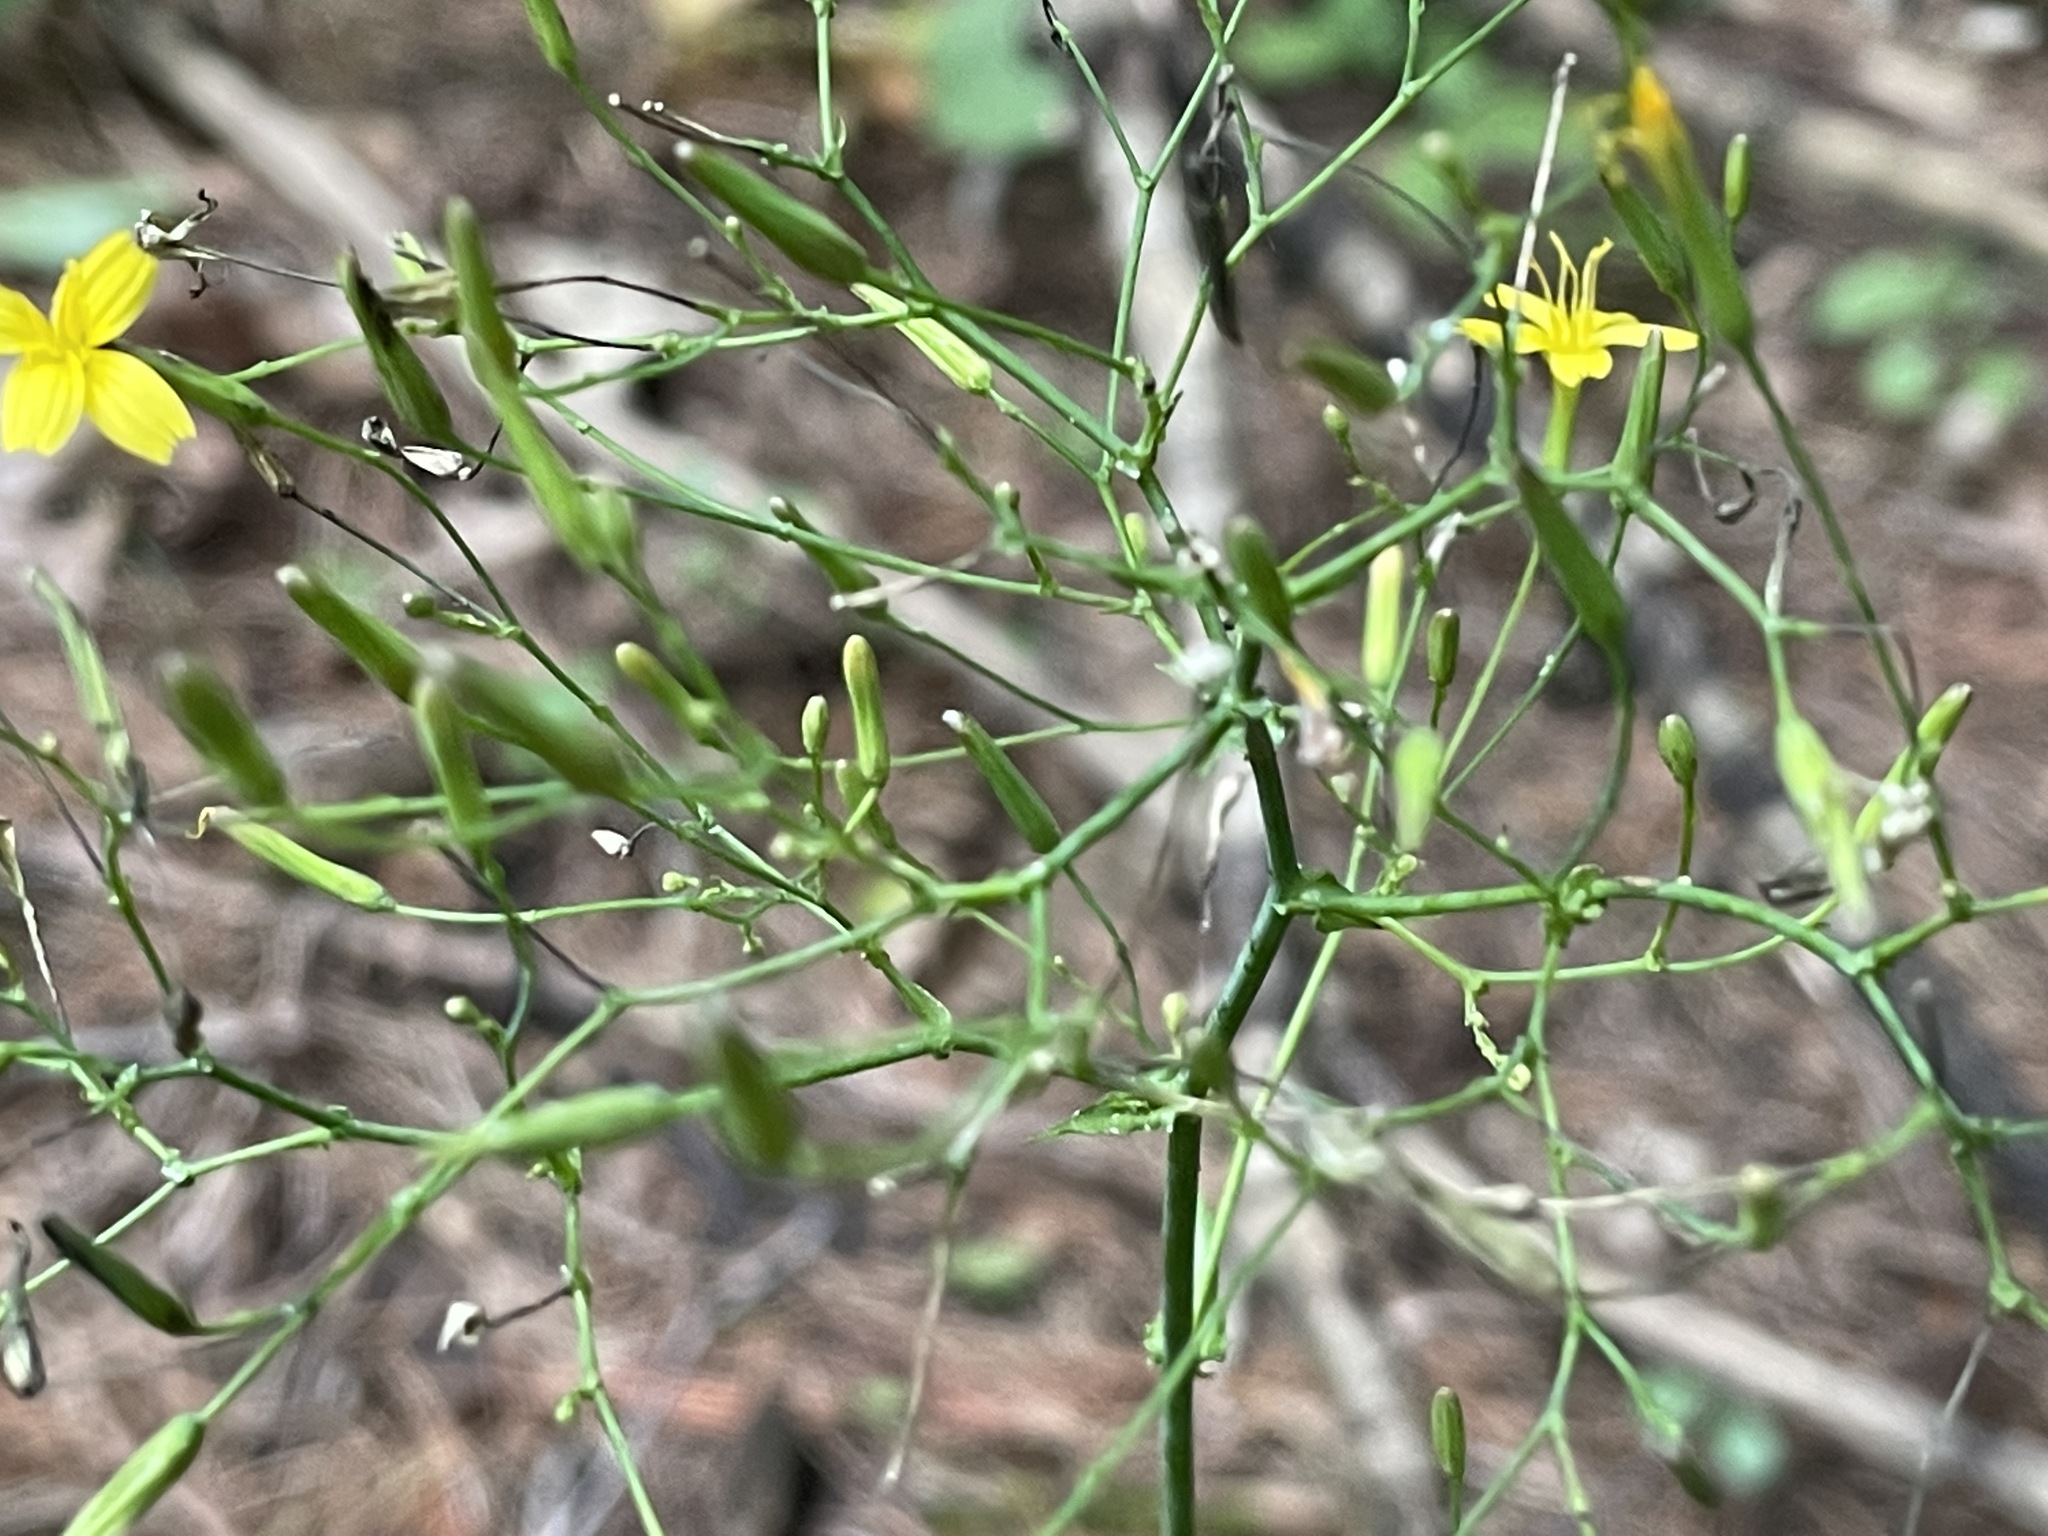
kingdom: Plantae
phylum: Tracheophyta
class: Magnoliopsida
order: Asterales
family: Asteraceae
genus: Mycelis
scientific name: Mycelis muralis
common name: Wall lettuce
